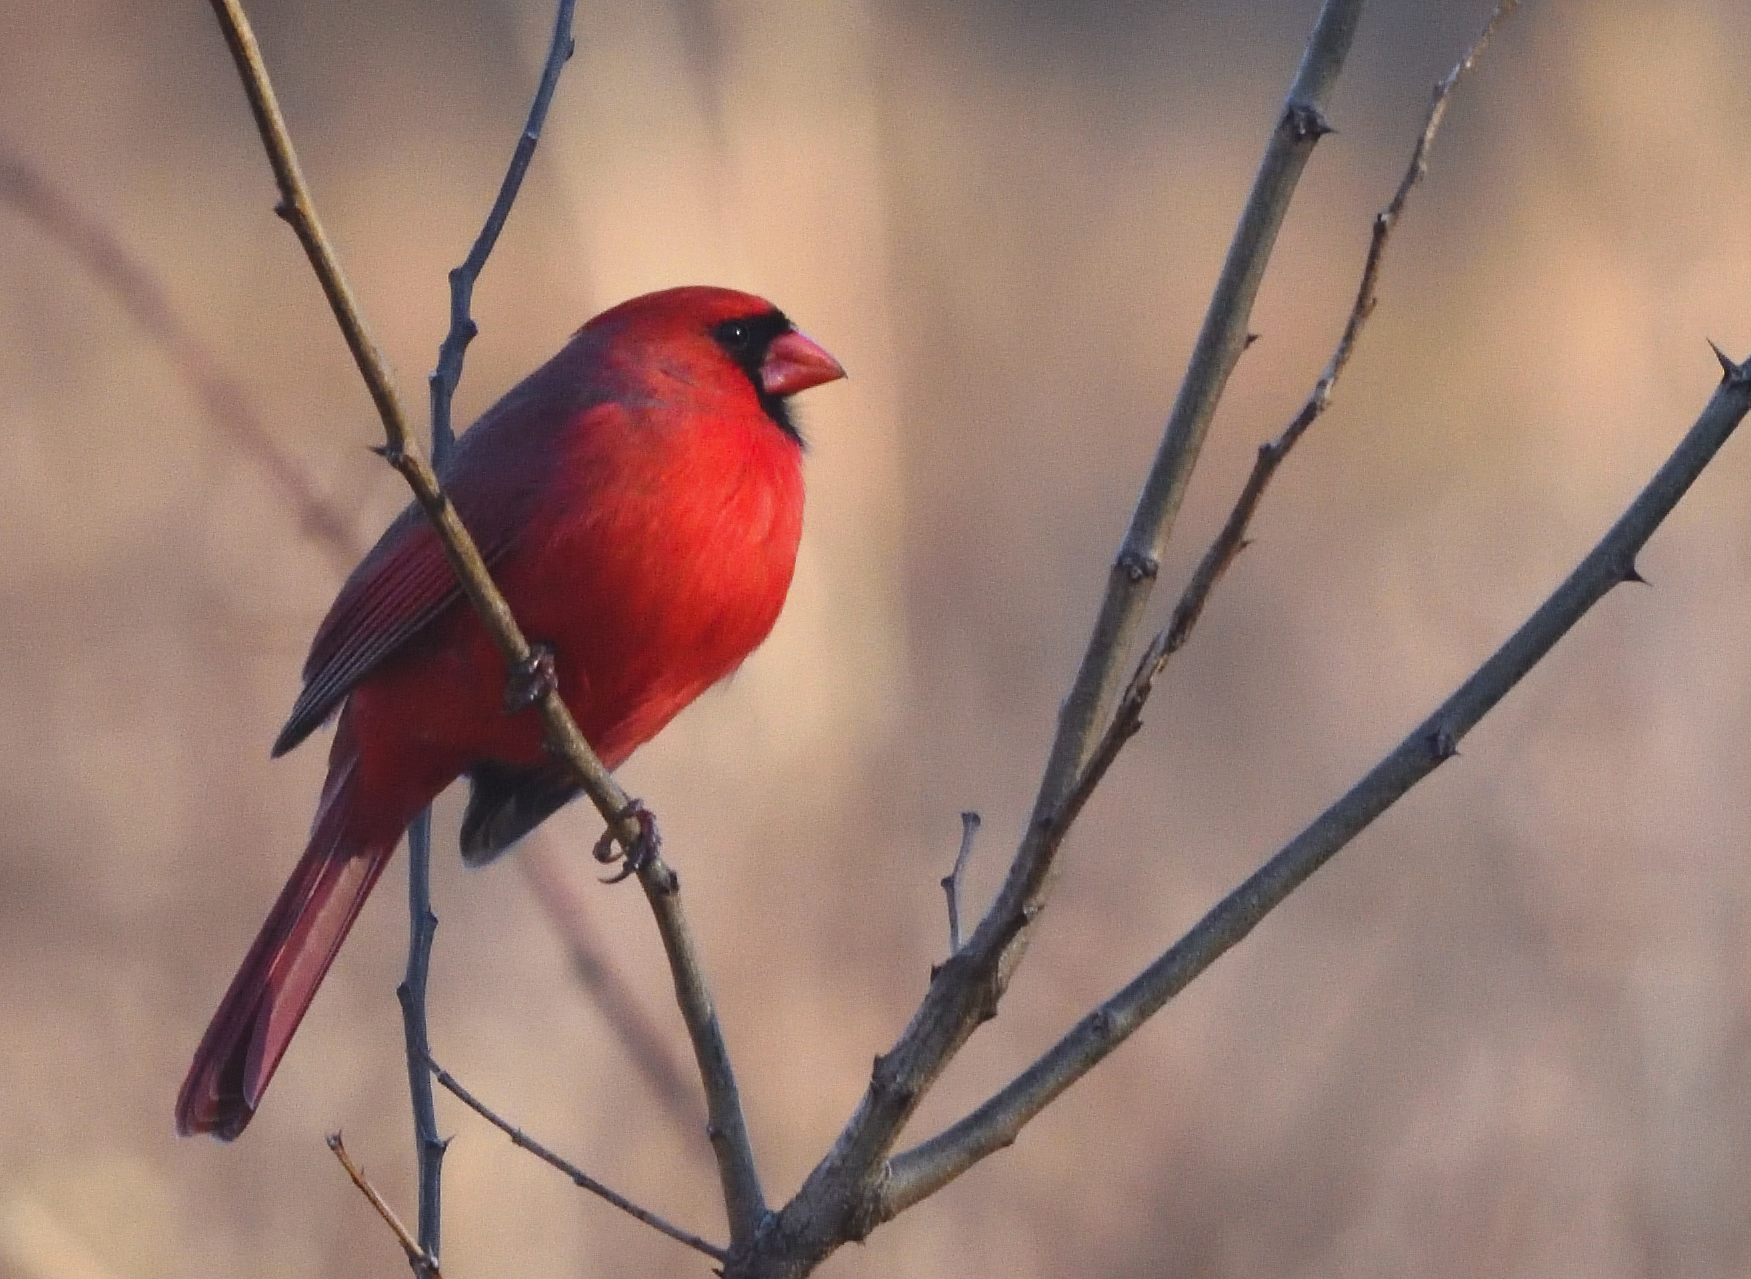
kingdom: Animalia
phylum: Chordata
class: Aves
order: Passeriformes
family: Cardinalidae
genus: Cardinalis
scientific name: Cardinalis cardinalis
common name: Northern cardinal
